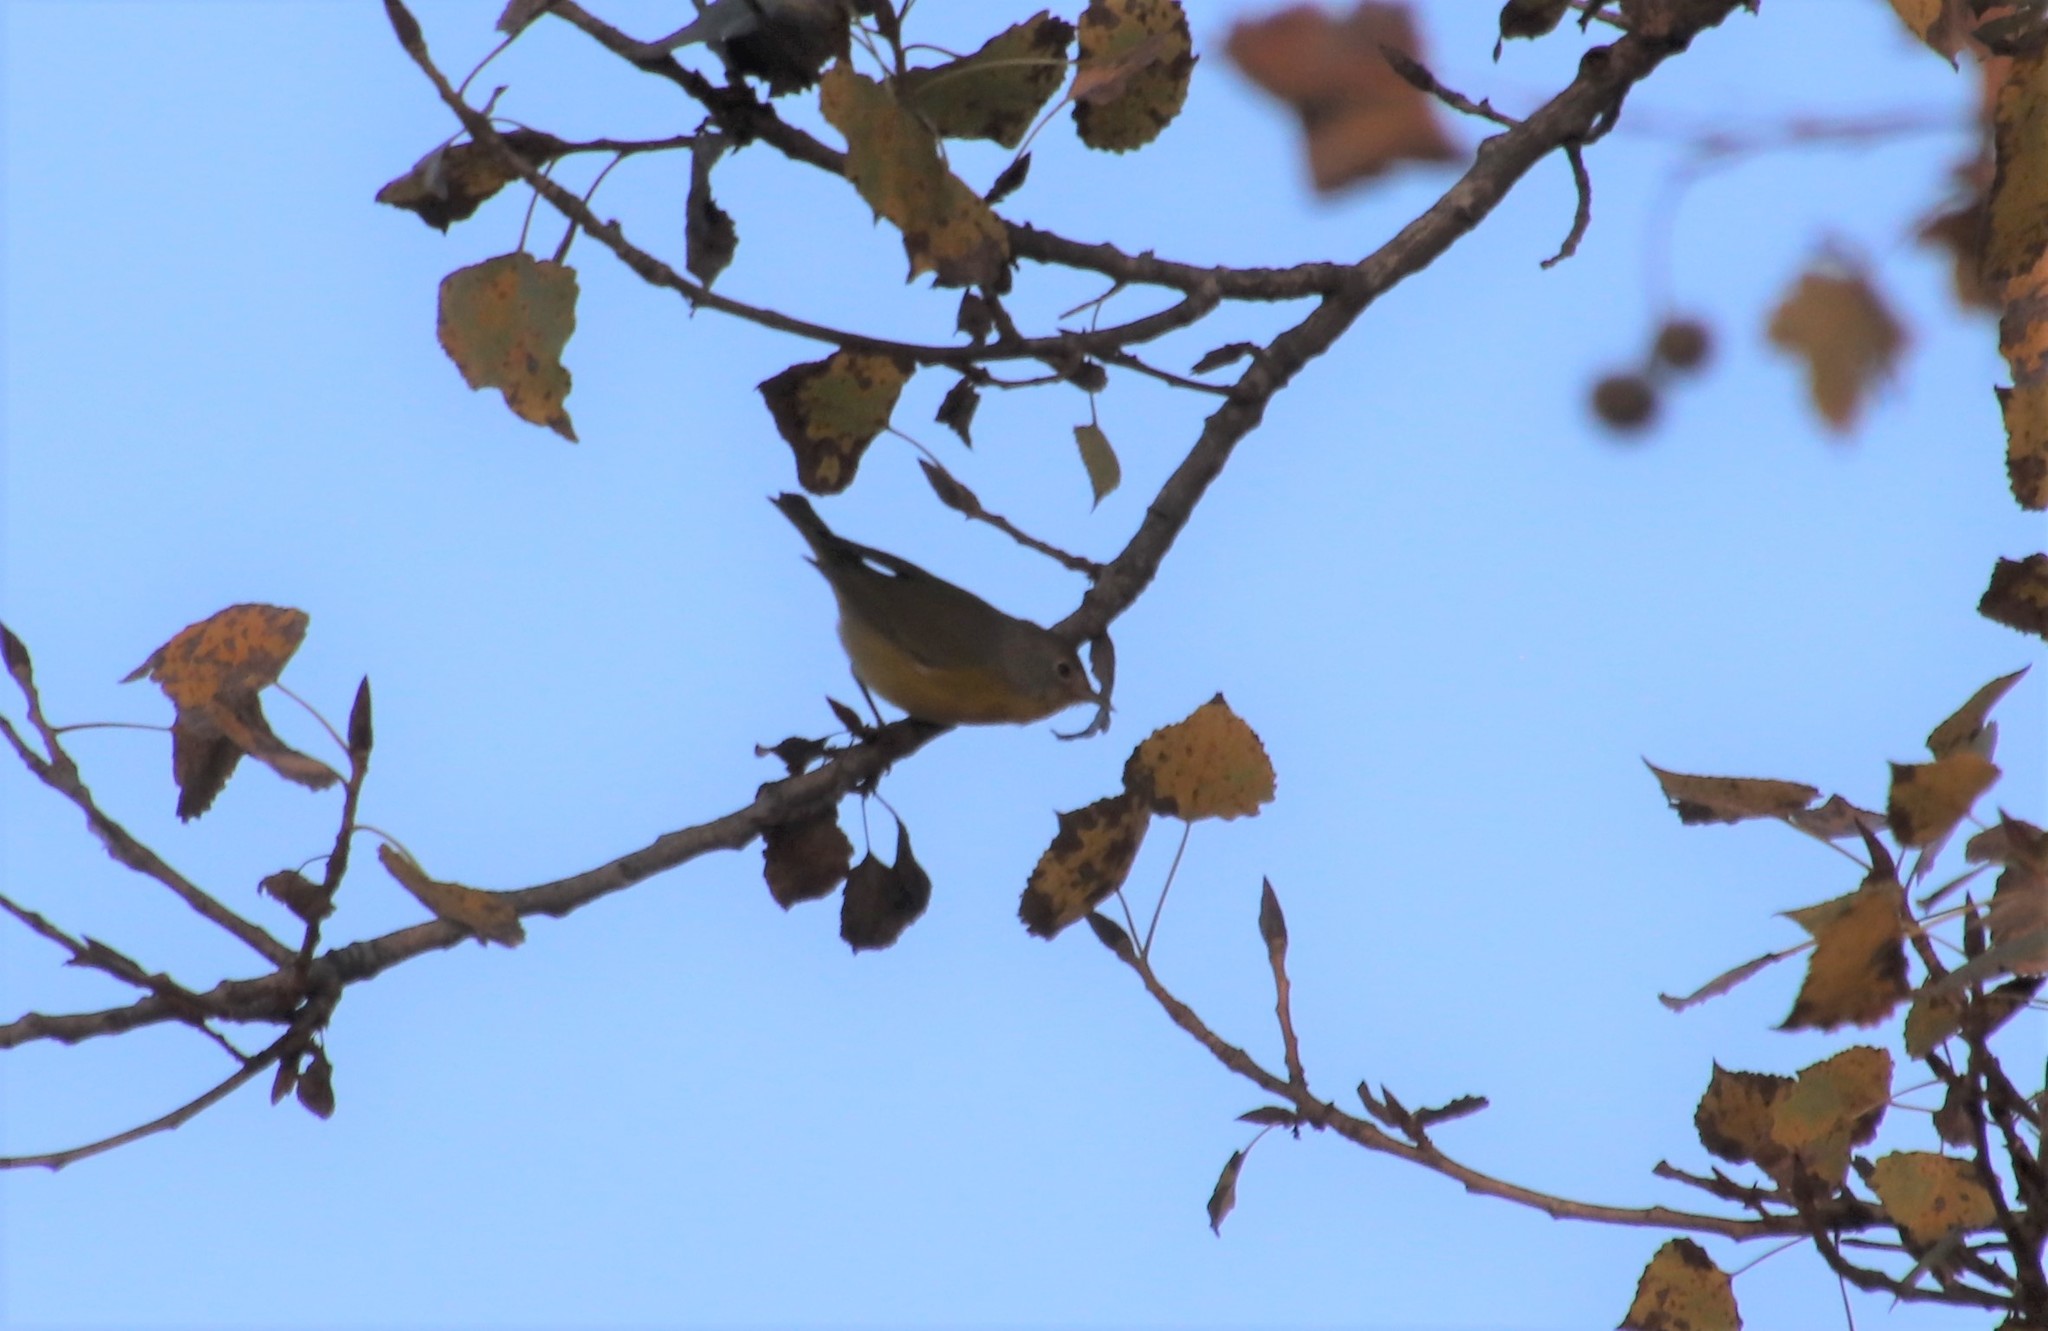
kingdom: Animalia
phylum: Chordata
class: Aves
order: Passeriformes
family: Parulidae
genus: Leiothlypis
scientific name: Leiothlypis ruficapilla
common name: Nashville warbler
